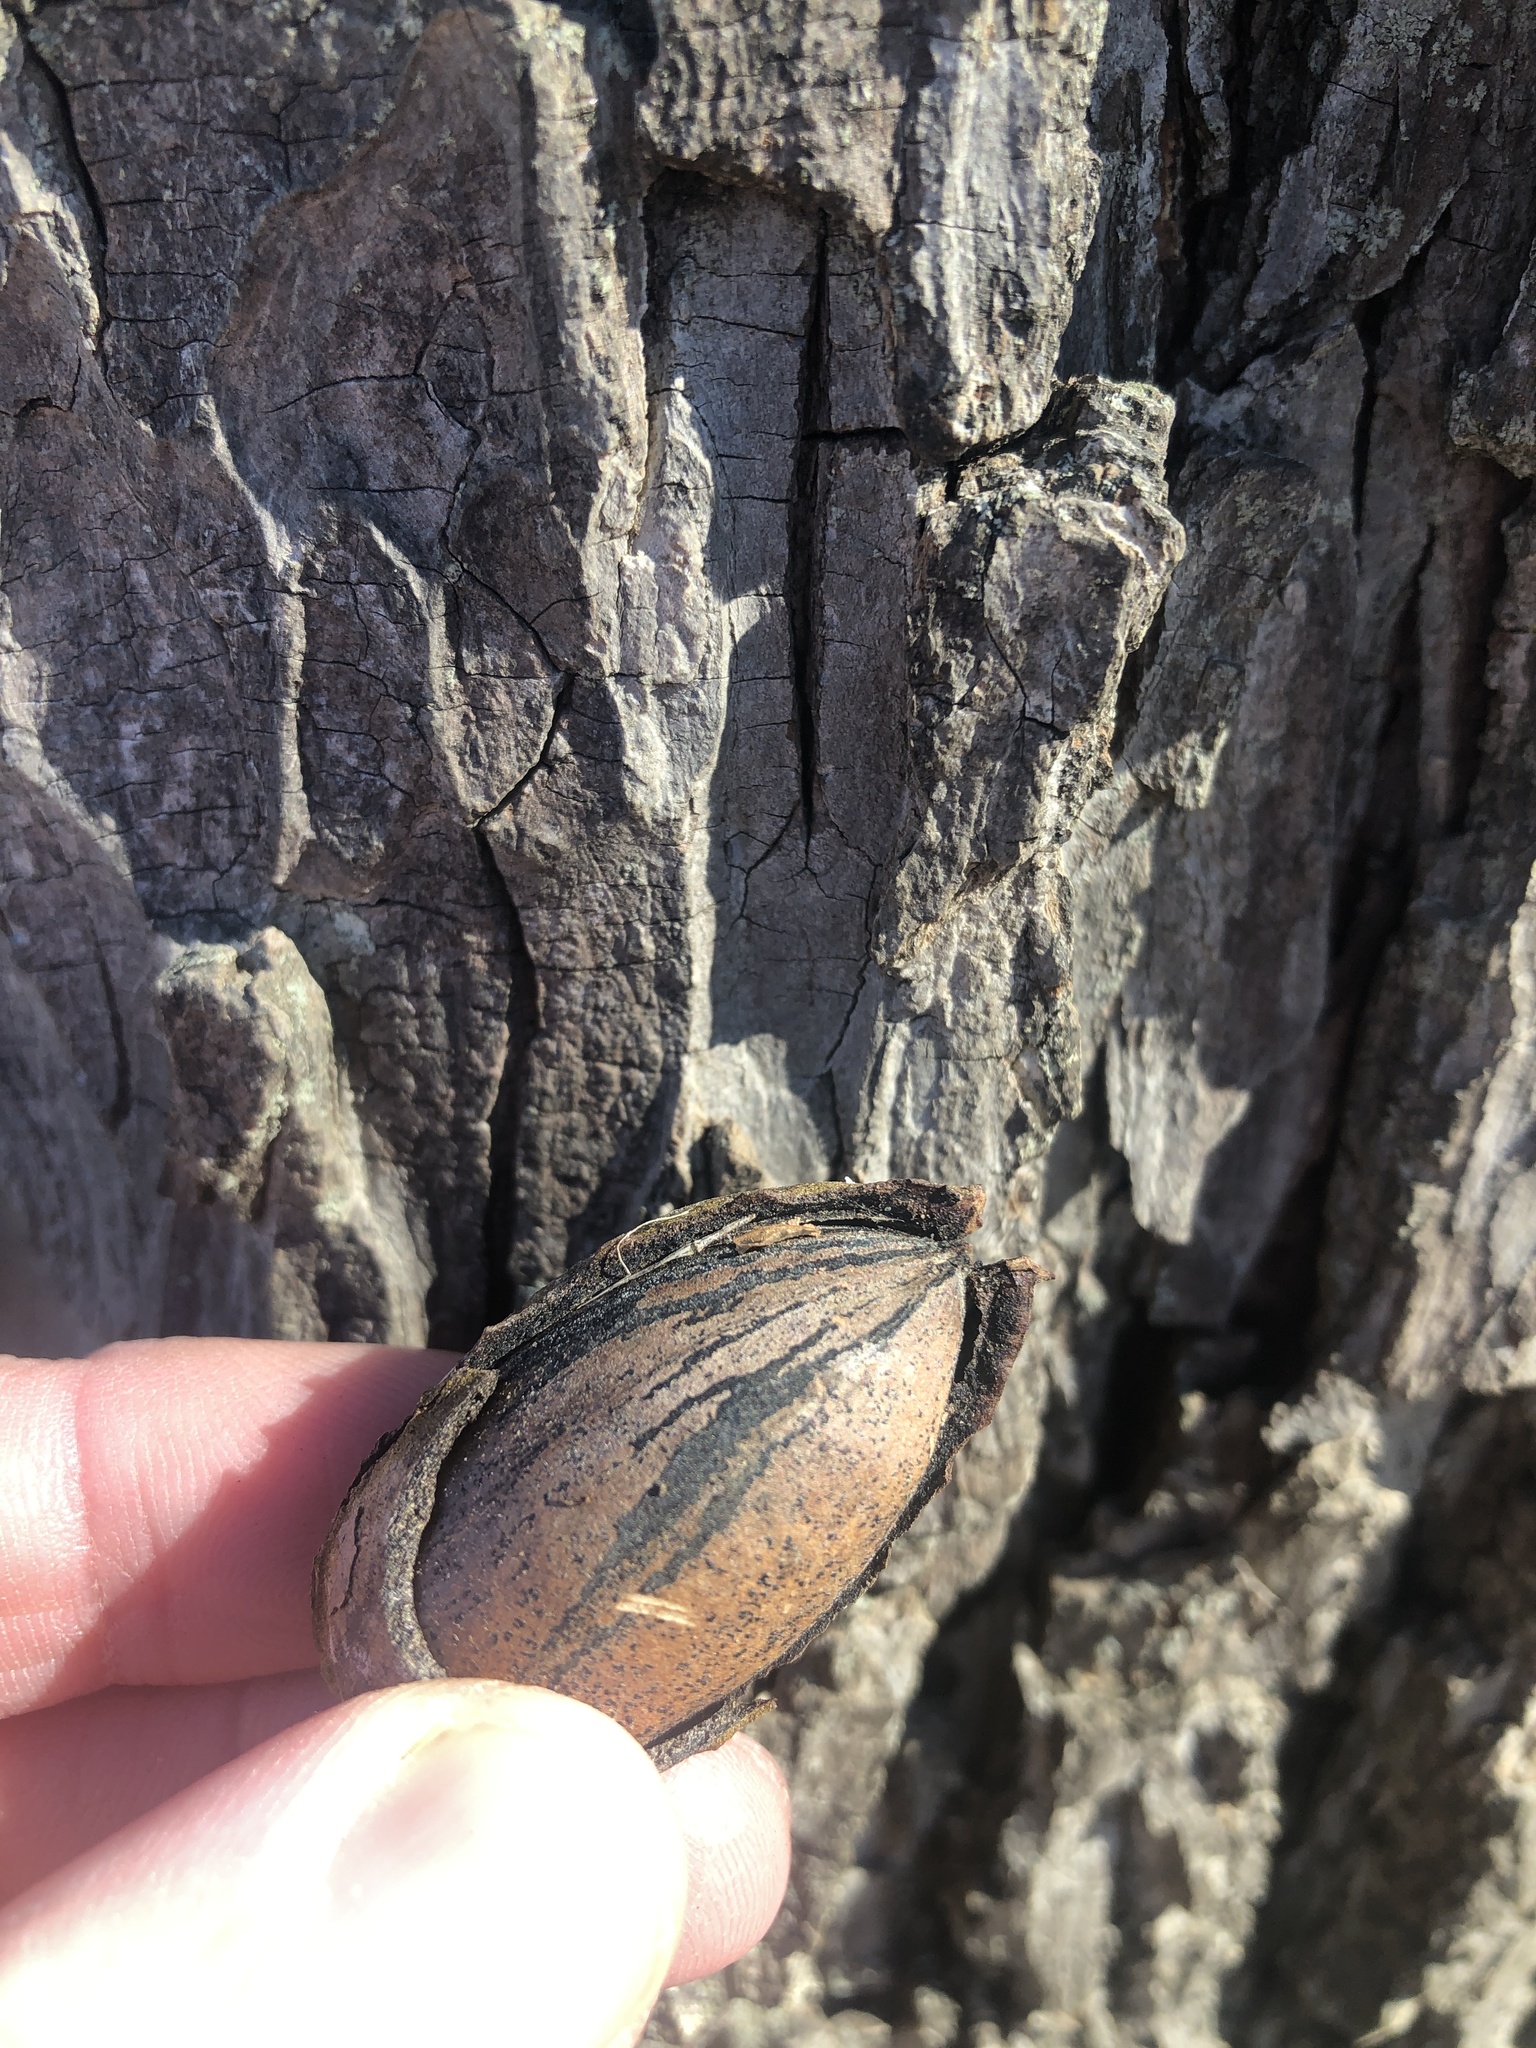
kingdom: Plantae
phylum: Tracheophyta
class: Magnoliopsida
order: Fagales
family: Juglandaceae
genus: Carya
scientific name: Carya illinoinensis
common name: Pecan
